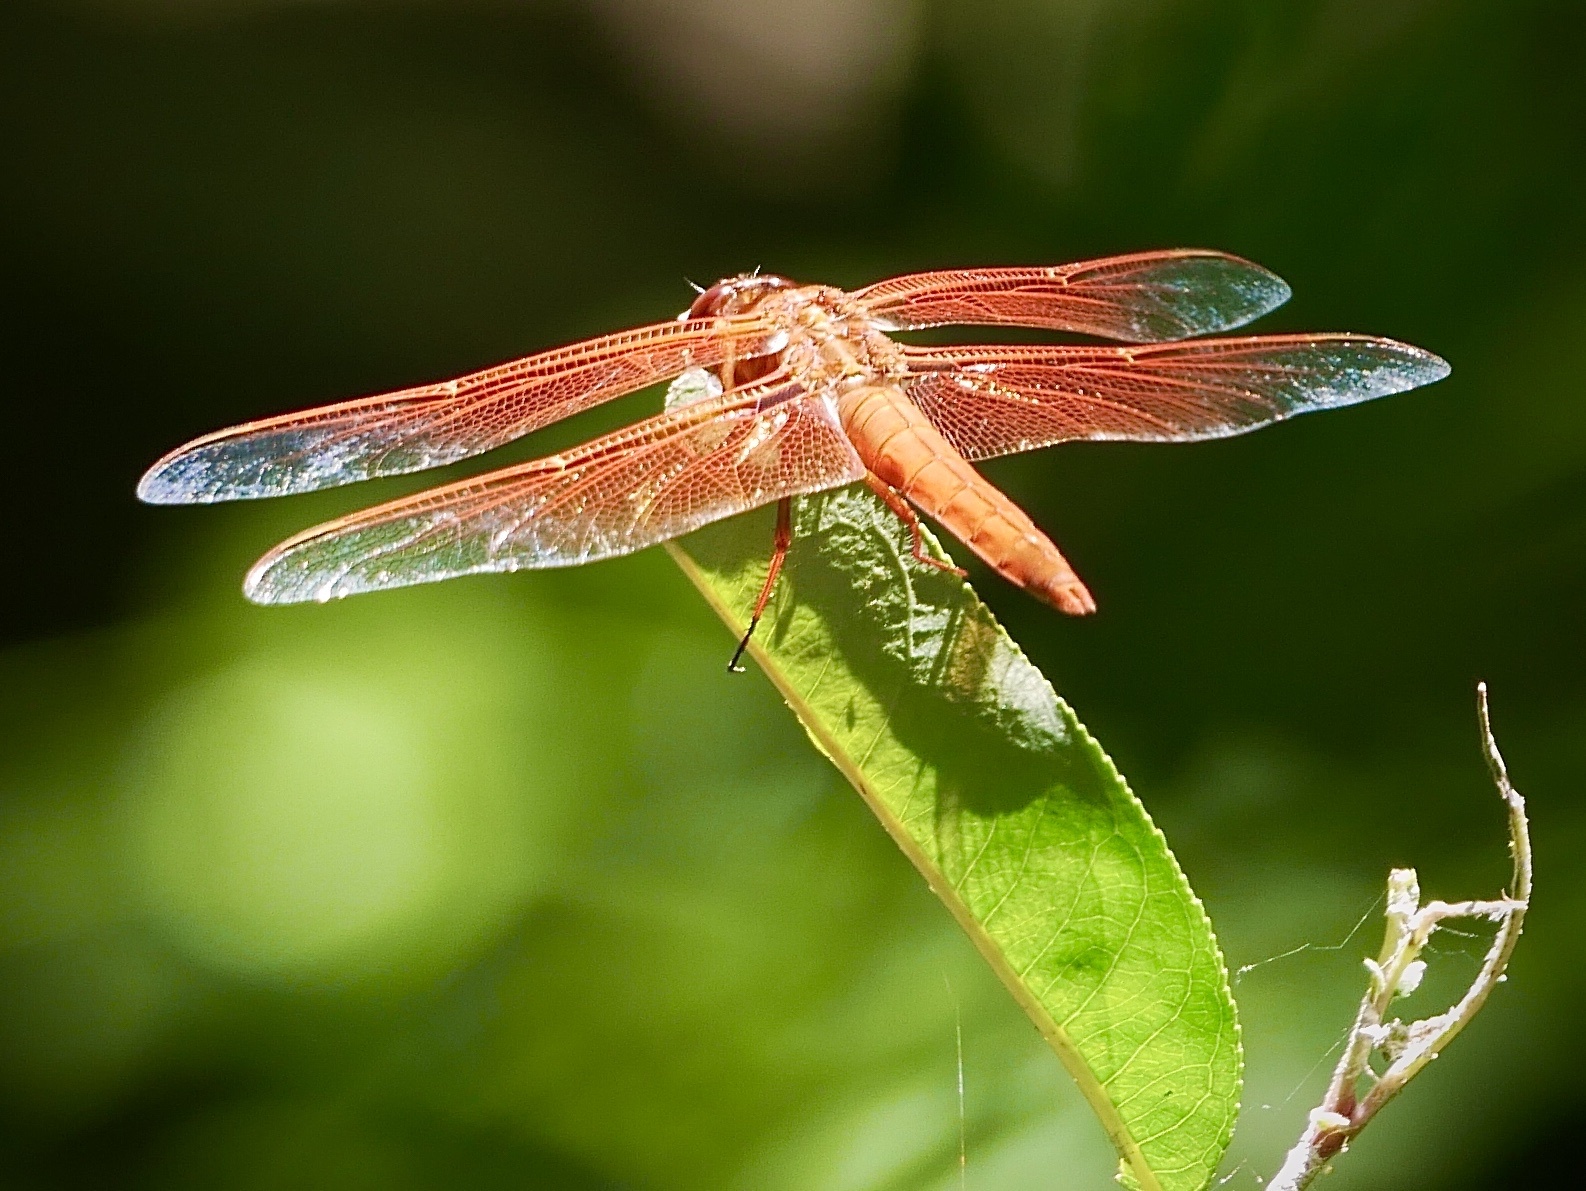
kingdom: Animalia
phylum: Arthropoda
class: Insecta
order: Odonata
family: Libellulidae
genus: Libellula
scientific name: Libellula saturata
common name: Flame skimmer
